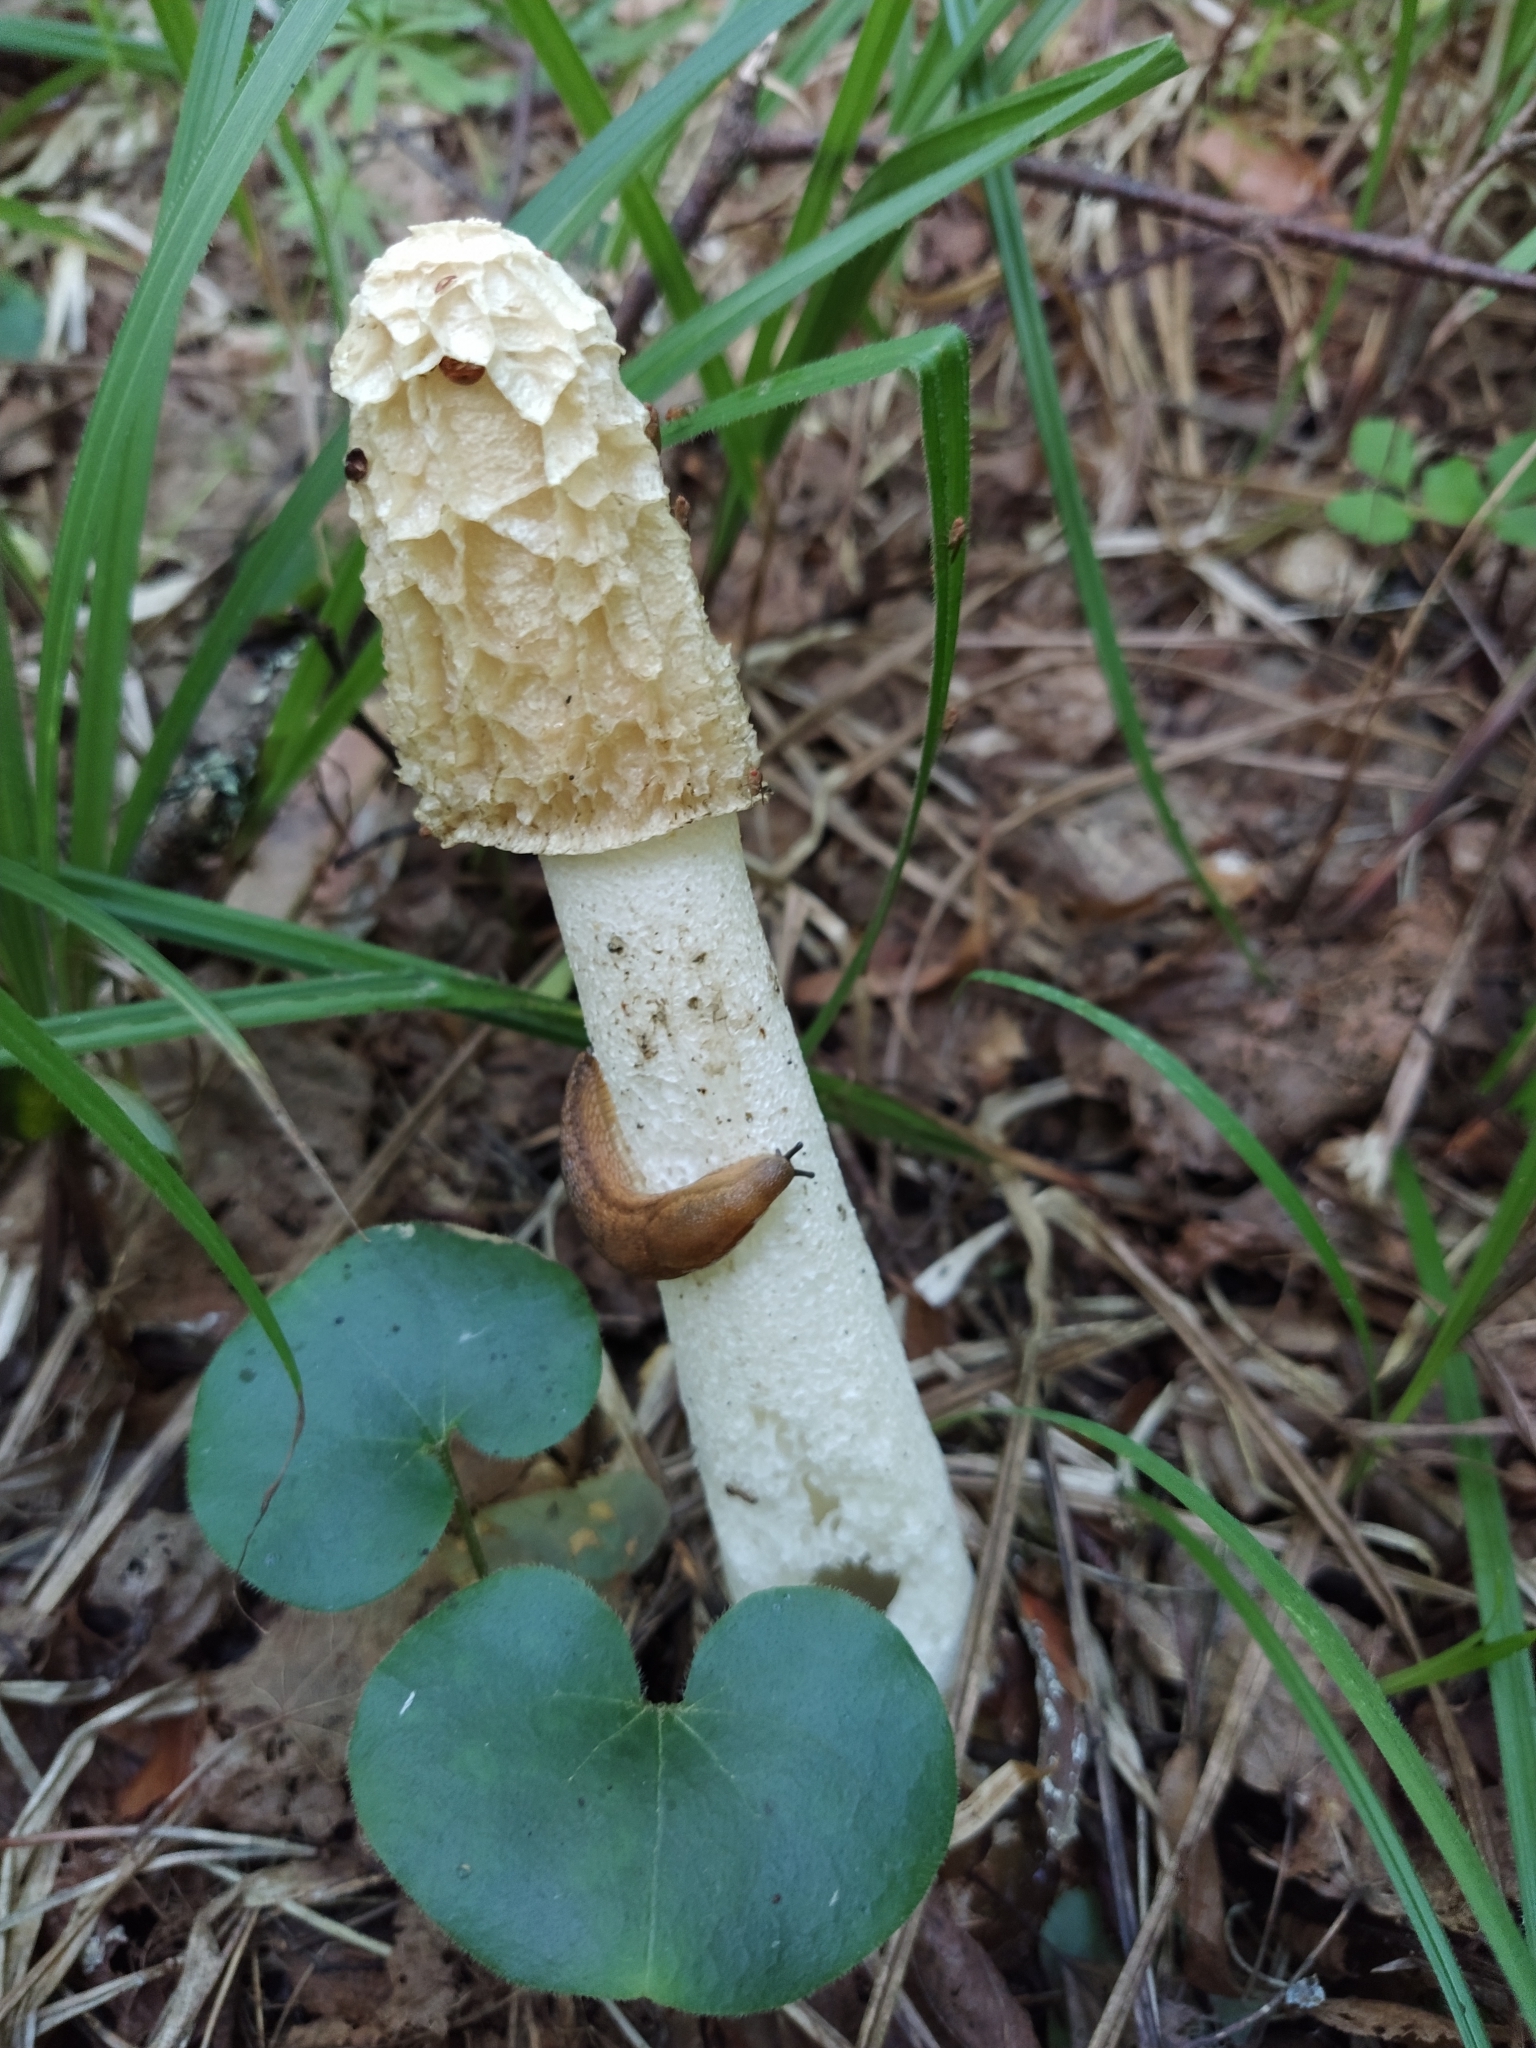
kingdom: Fungi
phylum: Basidiomycota
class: Agaricomycetes
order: Phallales
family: Phallaceae
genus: Phallus
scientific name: Phallus
